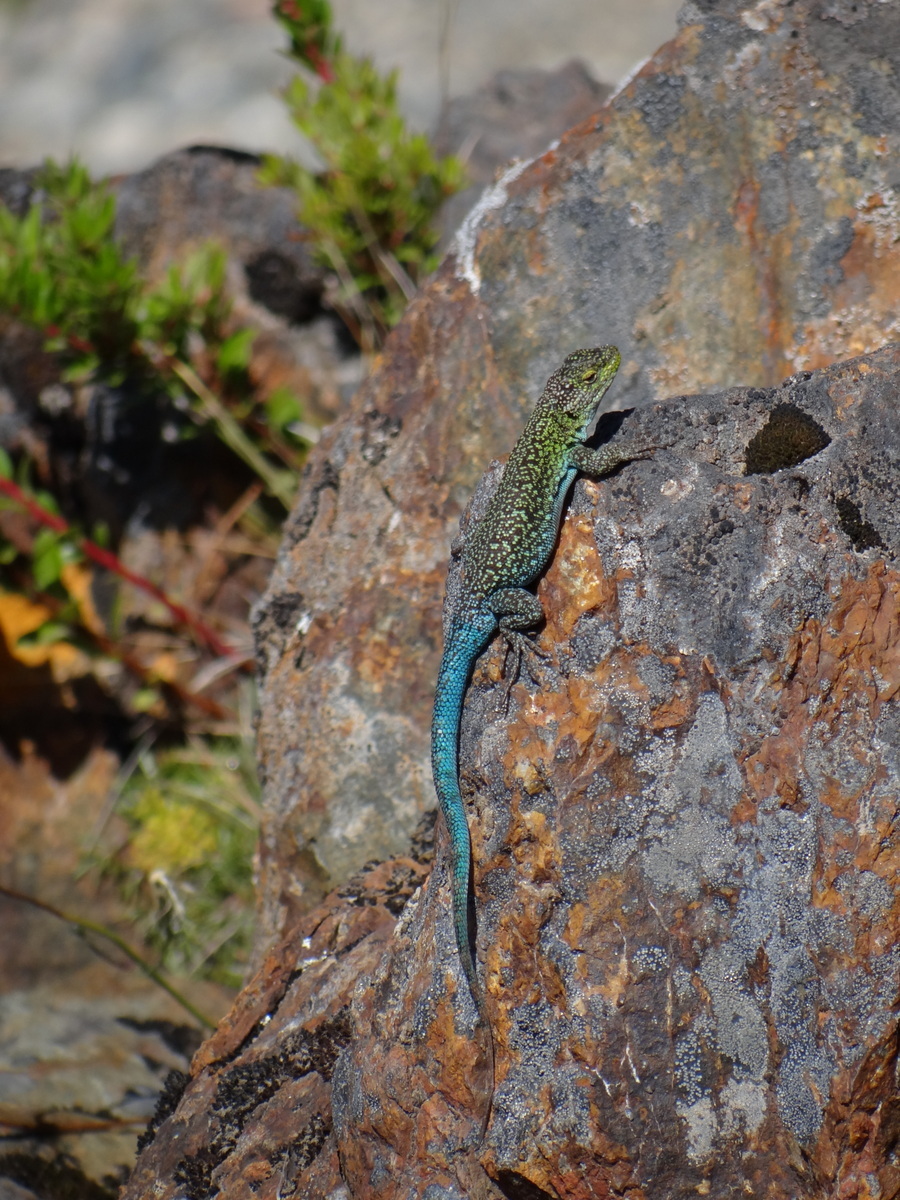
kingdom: Animalia
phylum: Chordata
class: Squamata
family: Liolaemidae
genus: Liolaemus
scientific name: Liolaemus tenuis
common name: Thin tree iguana
